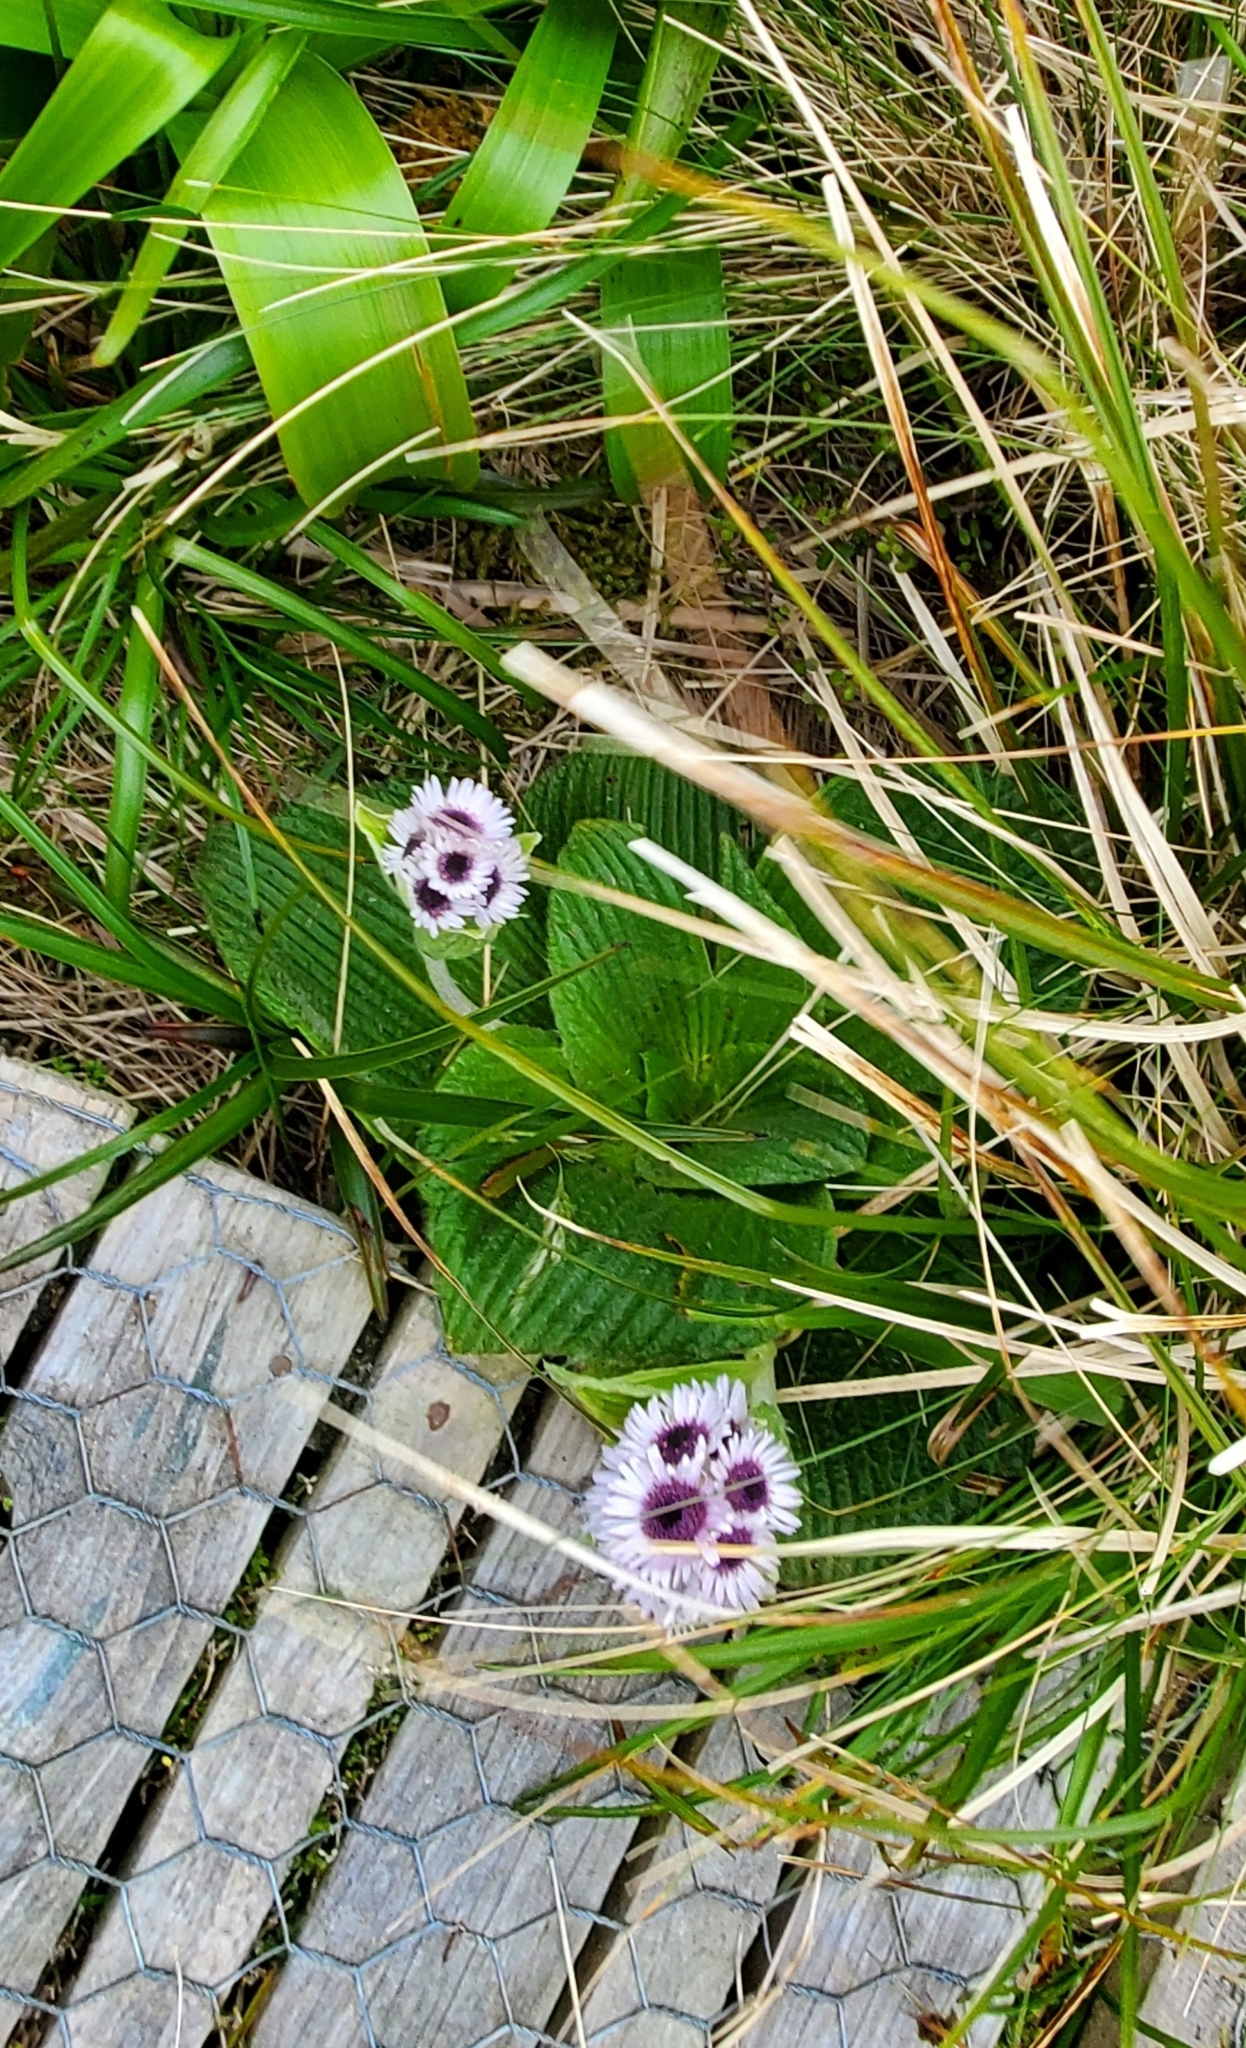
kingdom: Plantae
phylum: Tracheophyta
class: Magnoliopsida
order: Asterales
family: Asteraceae
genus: Pleurophyllum
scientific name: Pleurophyllum speciosum
